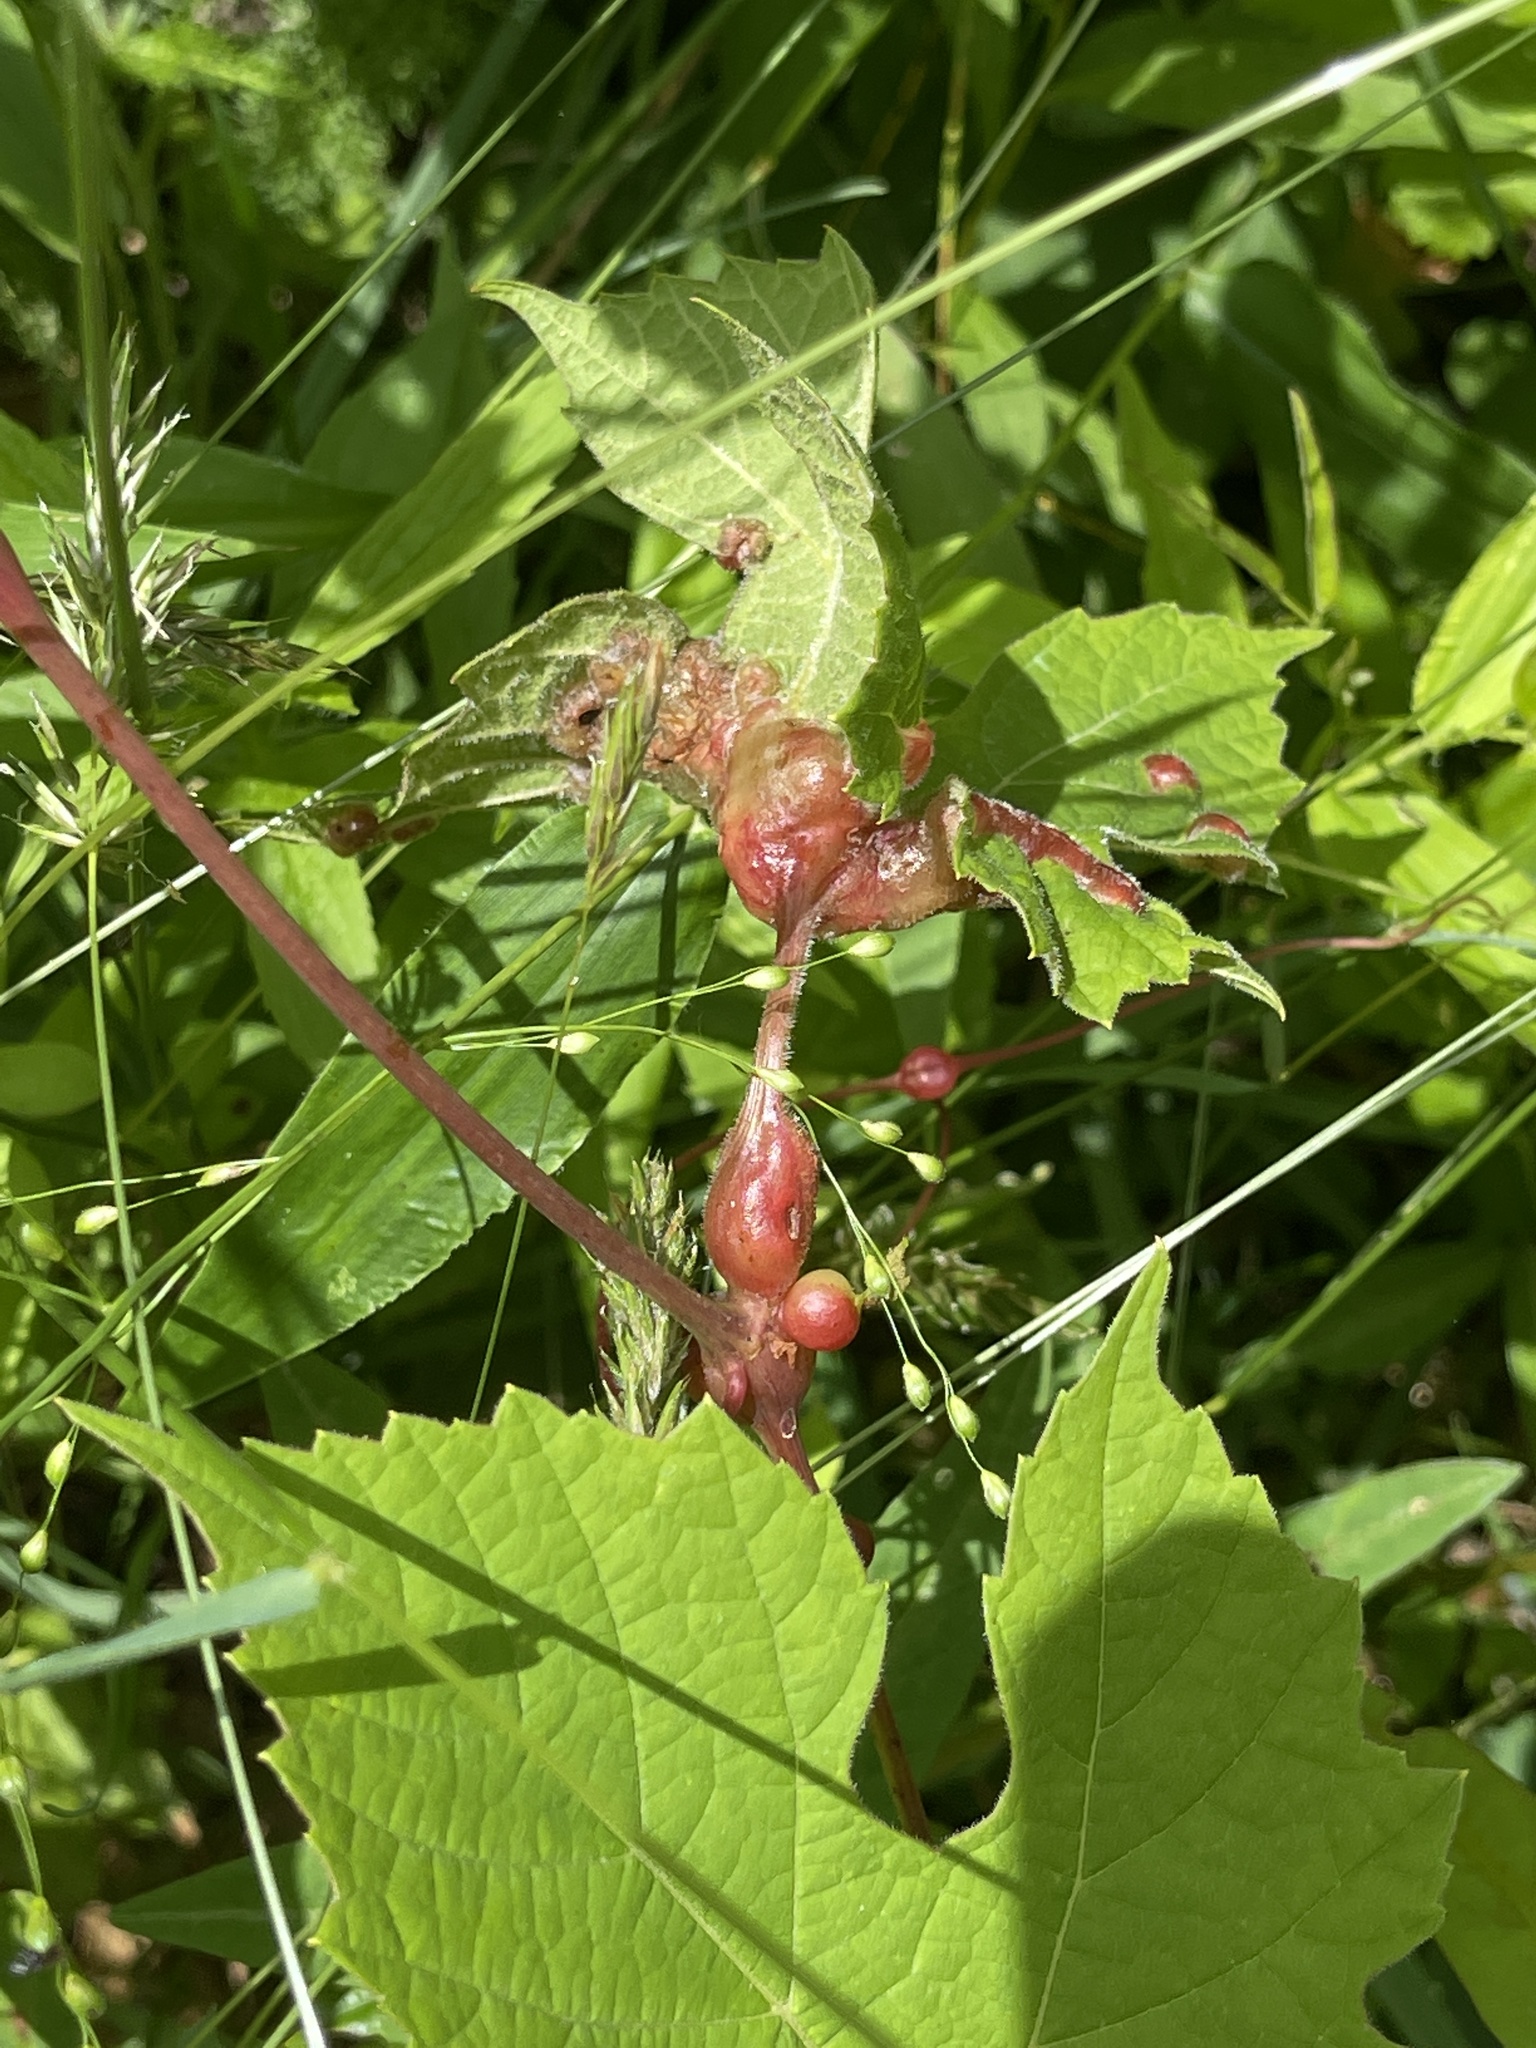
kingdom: Animalia
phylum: Arthropoda
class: Insecta
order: Diptera
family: Cecidomyiidae
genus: Vitisiella
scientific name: Vitisiella brevicauda
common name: Grape tumid gallmaker midge
